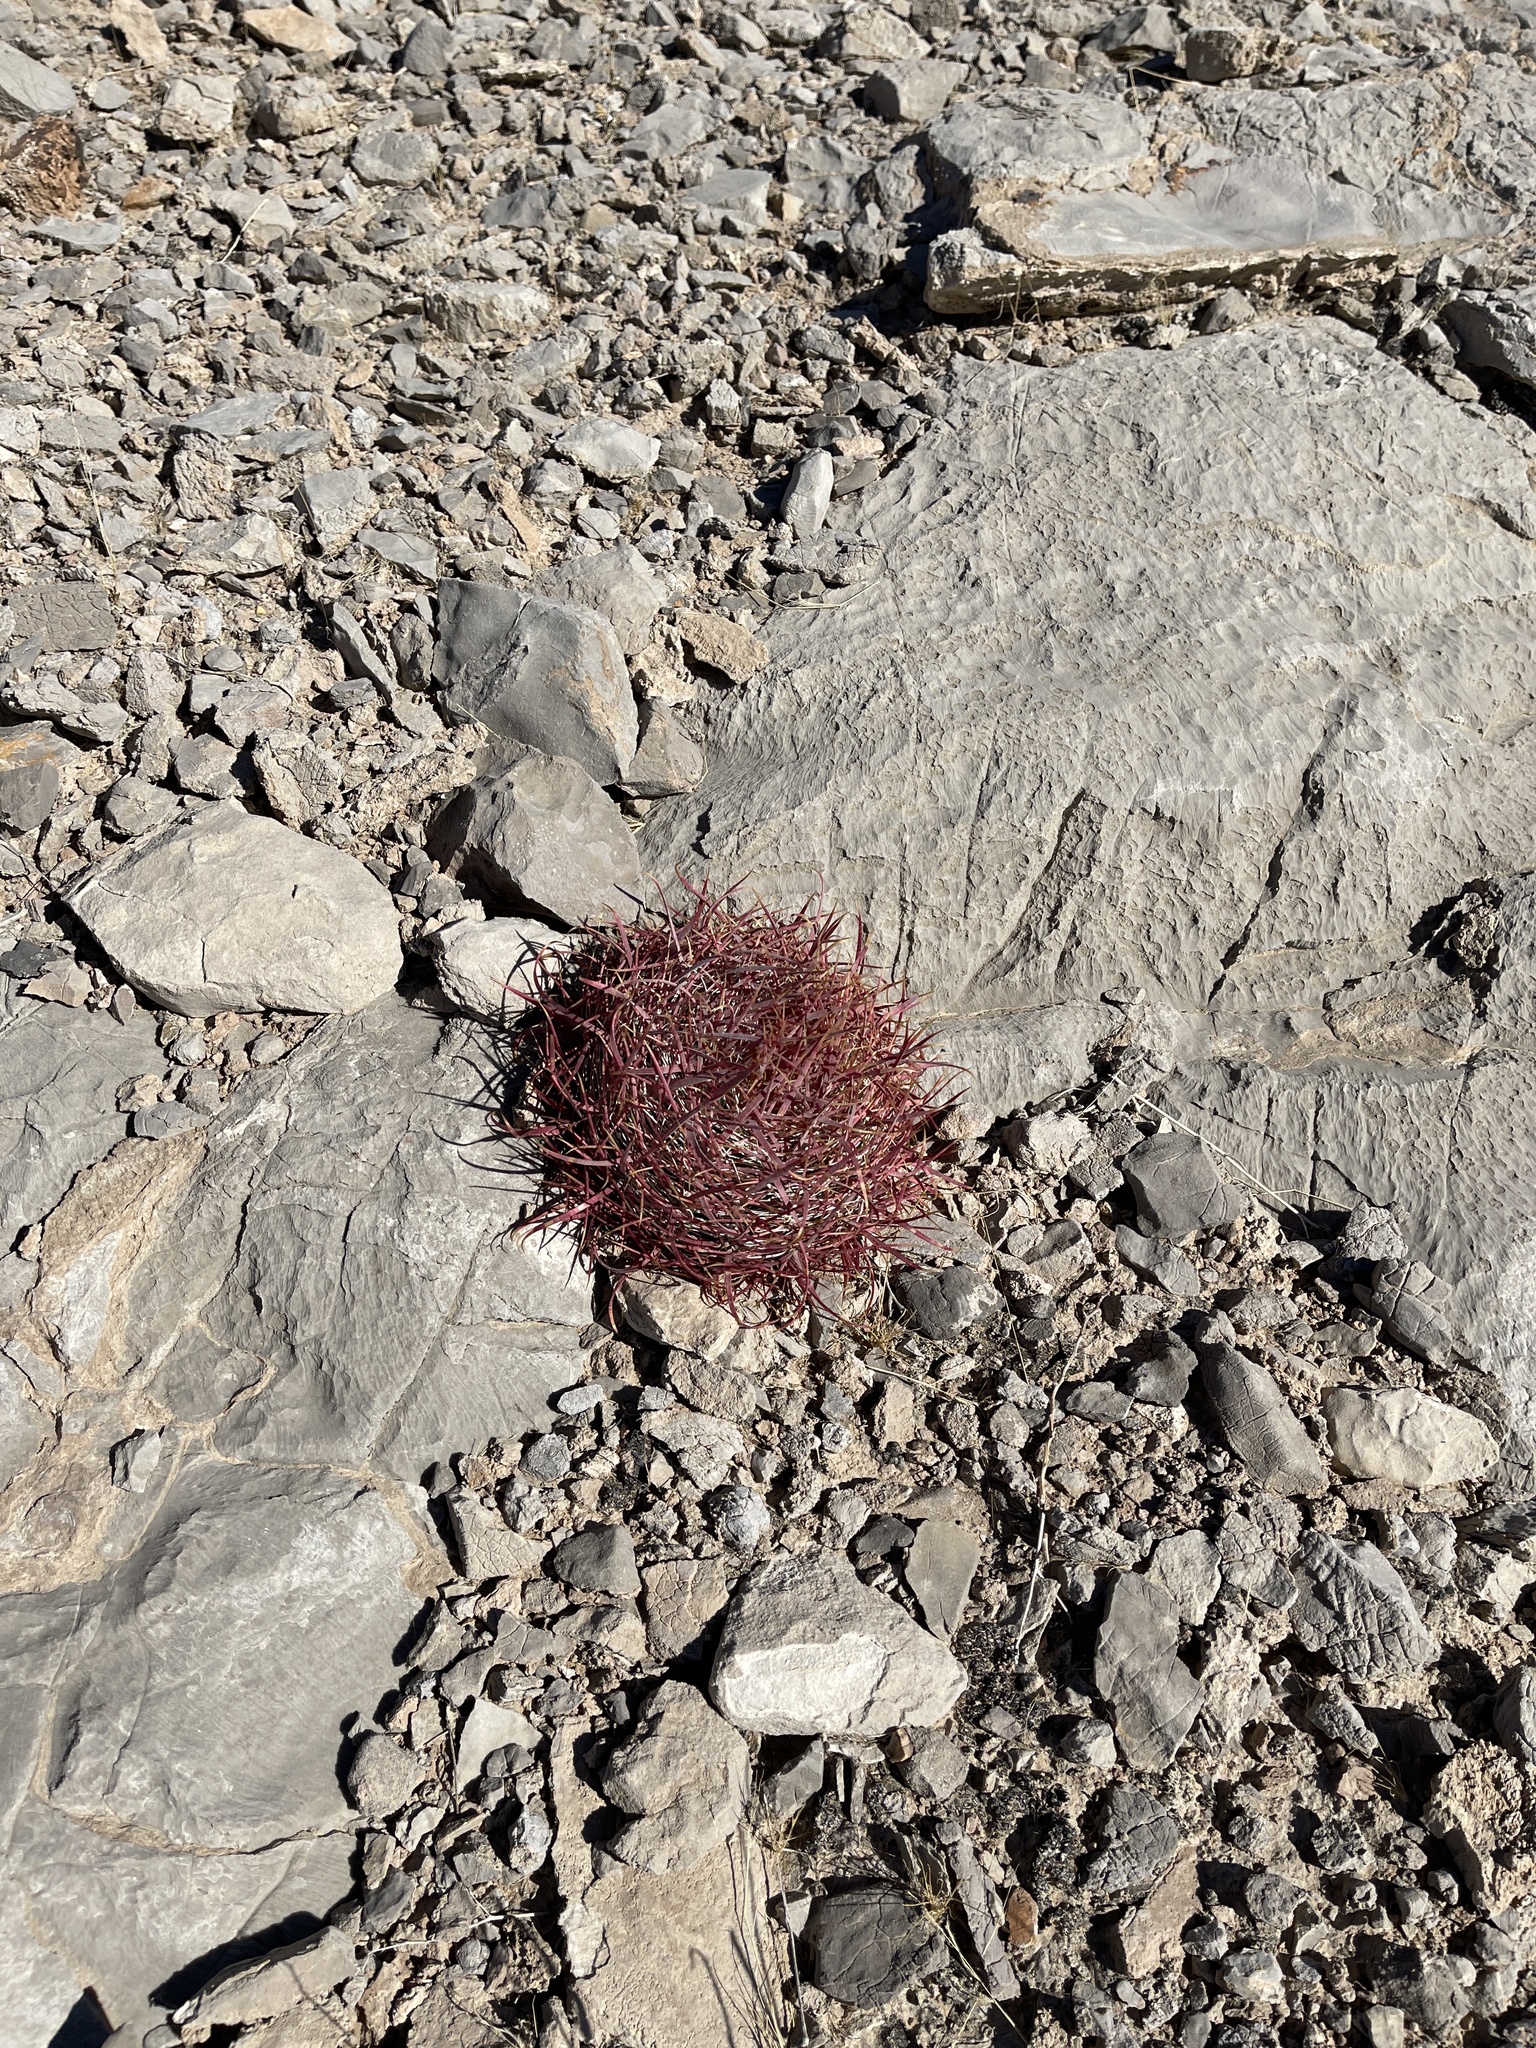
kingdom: Plantae
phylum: Tracheophyta
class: Magnoliopsida
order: Caryophyllales
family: Cactaceae
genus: Ferocactus
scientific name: Ferocactus cylindraceus
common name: California barrel cactus
